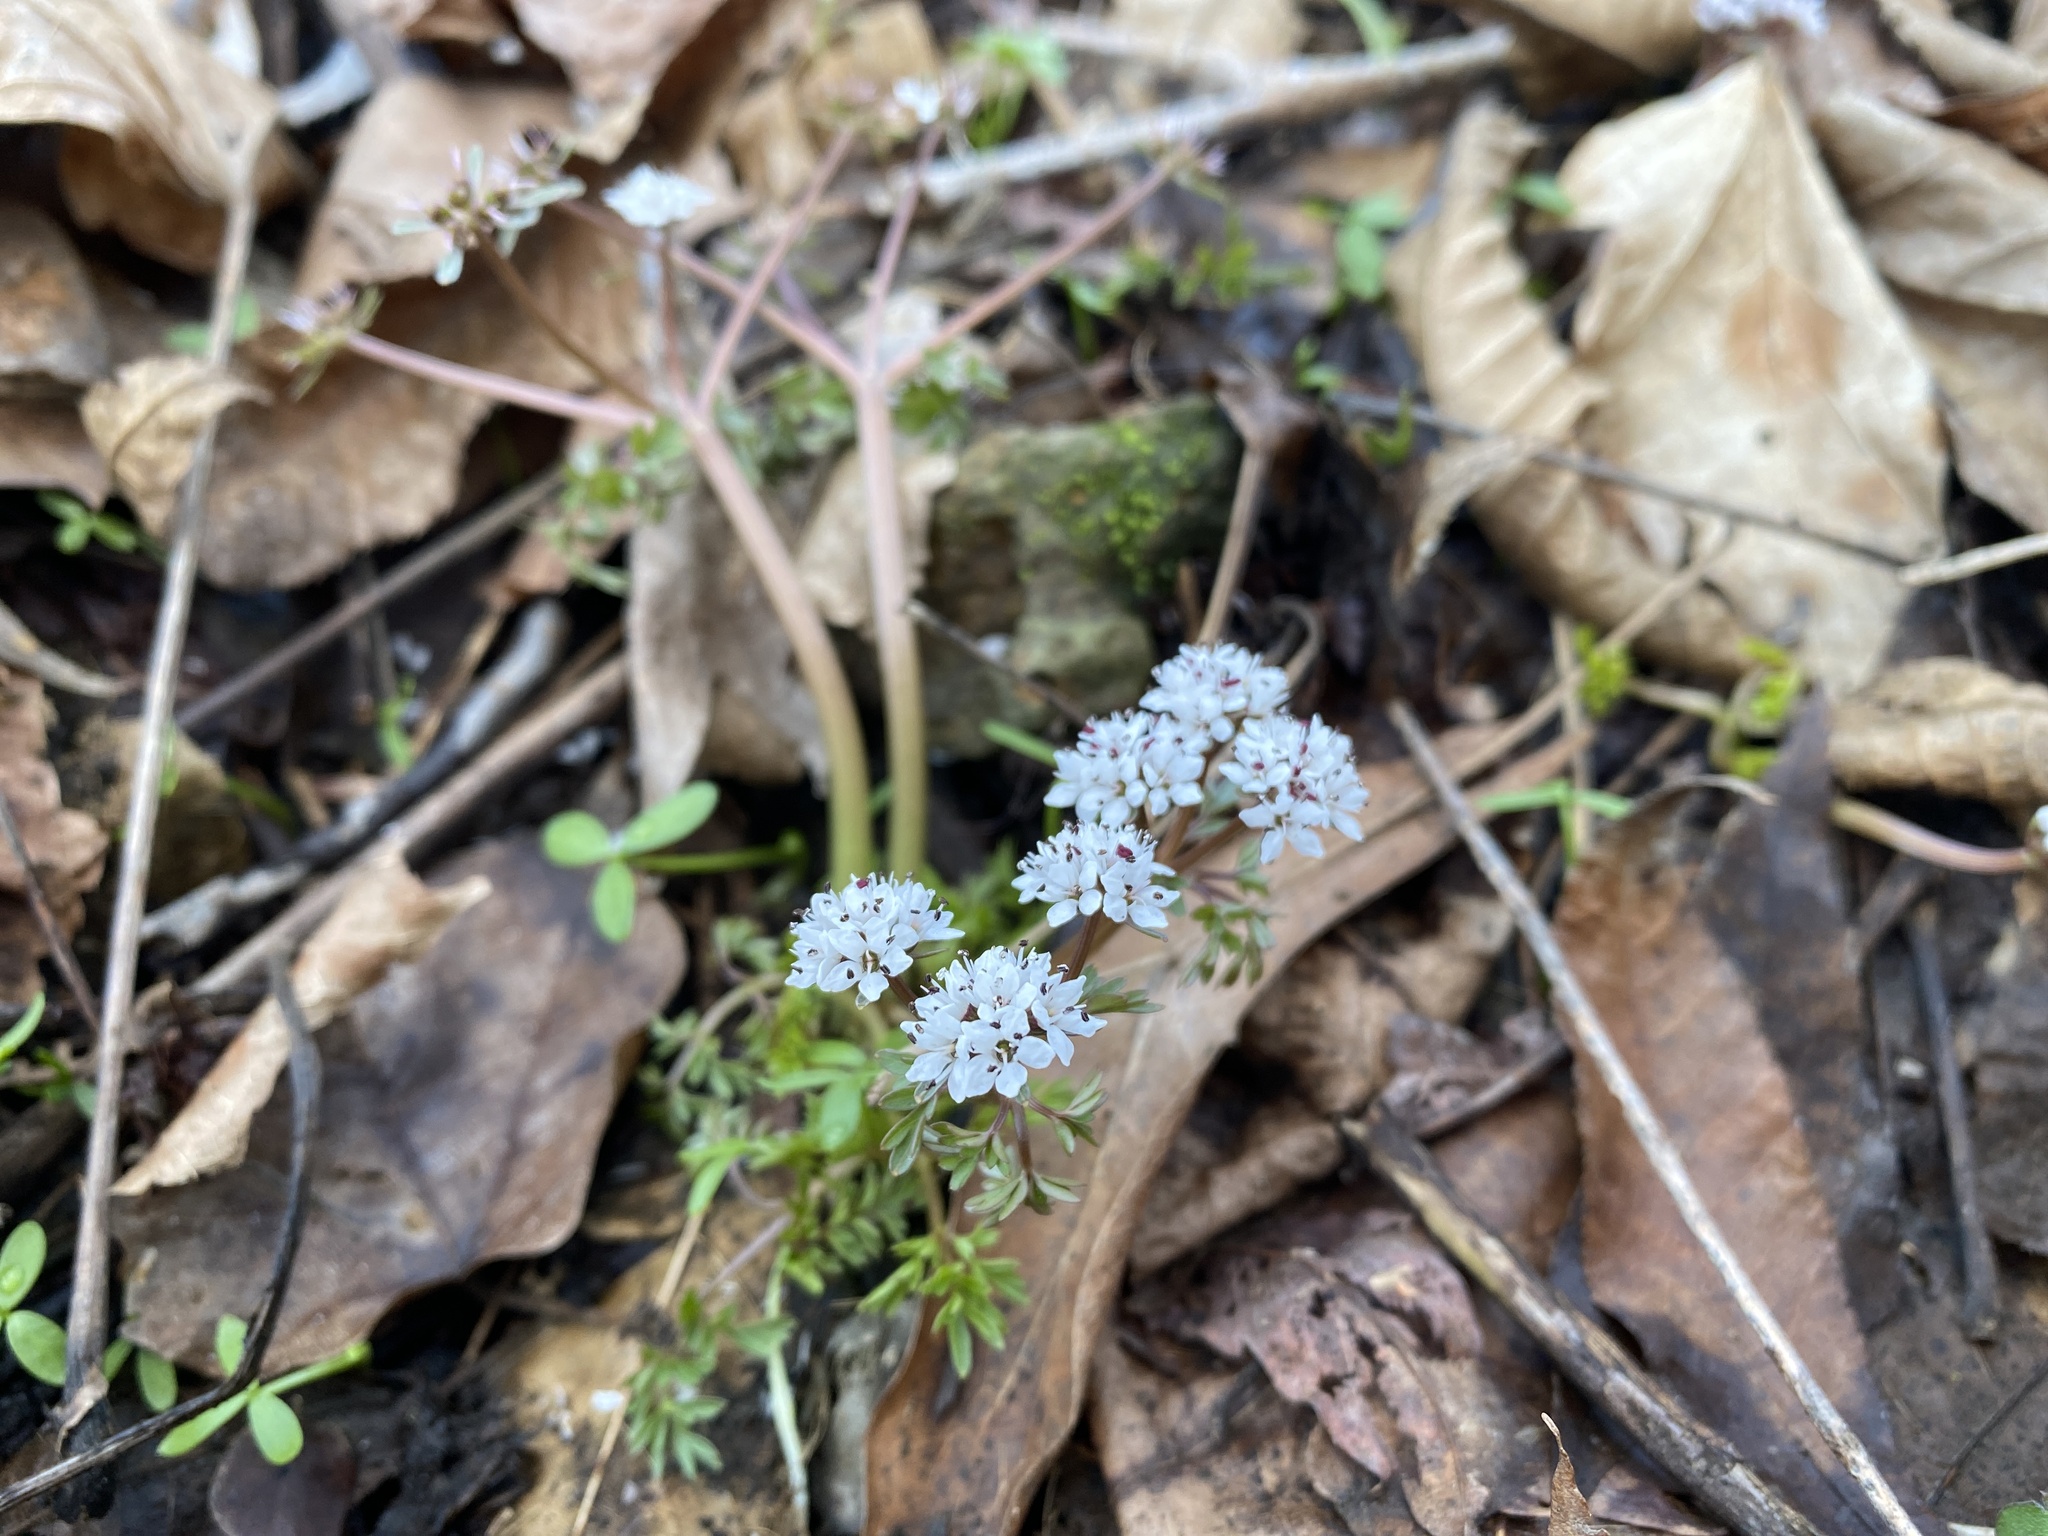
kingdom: Plantae
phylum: Tracheophyta
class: Magnoliopsida
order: Apiales
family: Apiaceae
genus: Erigenia
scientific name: Erigenia bulbosa
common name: Pepper-and-salt
